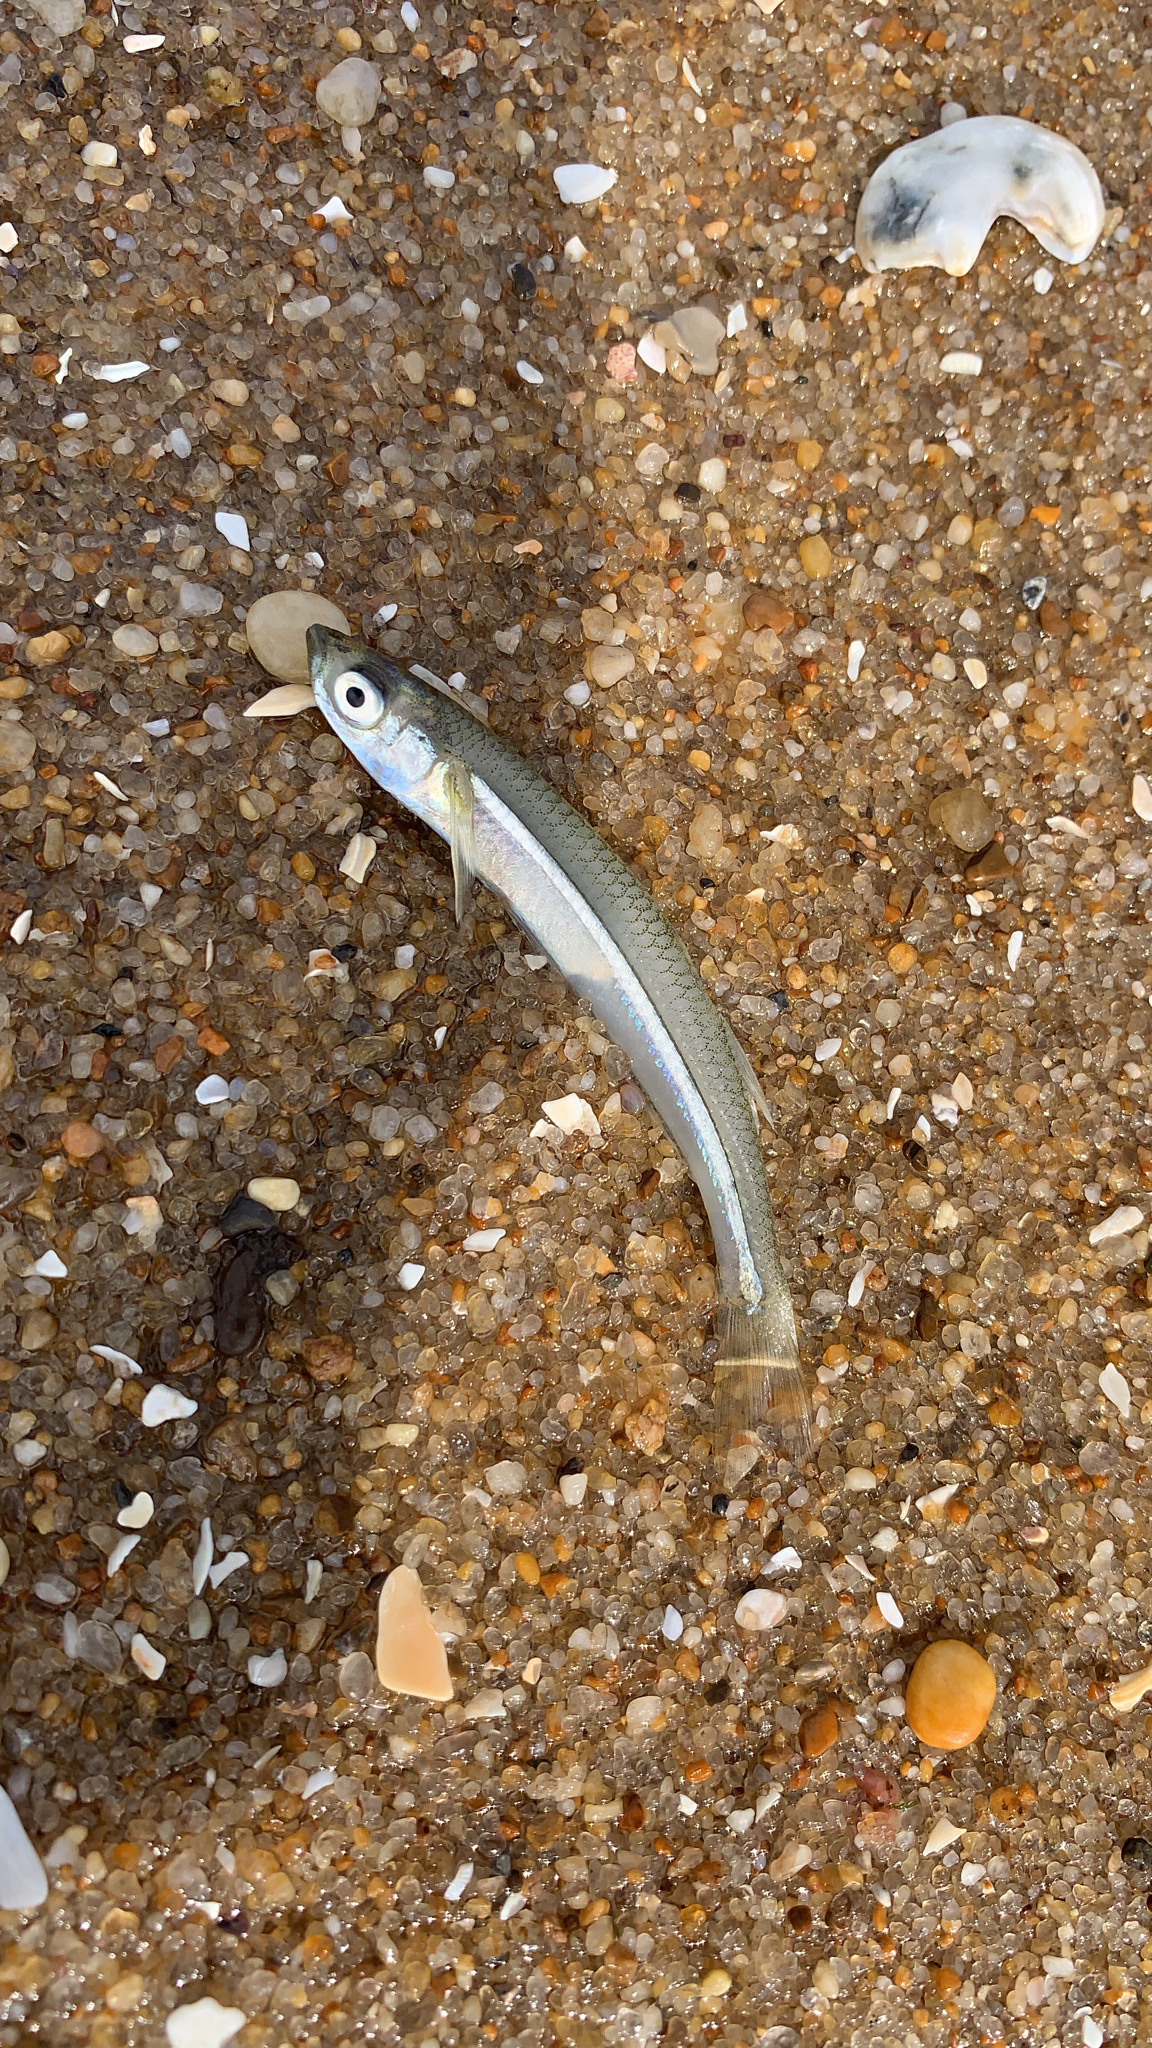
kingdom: Animalia
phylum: Chordata
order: Atheriniformes
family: Atherinopsidae
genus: Menidia
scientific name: Menidia menidia
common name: Atlantic silverside
